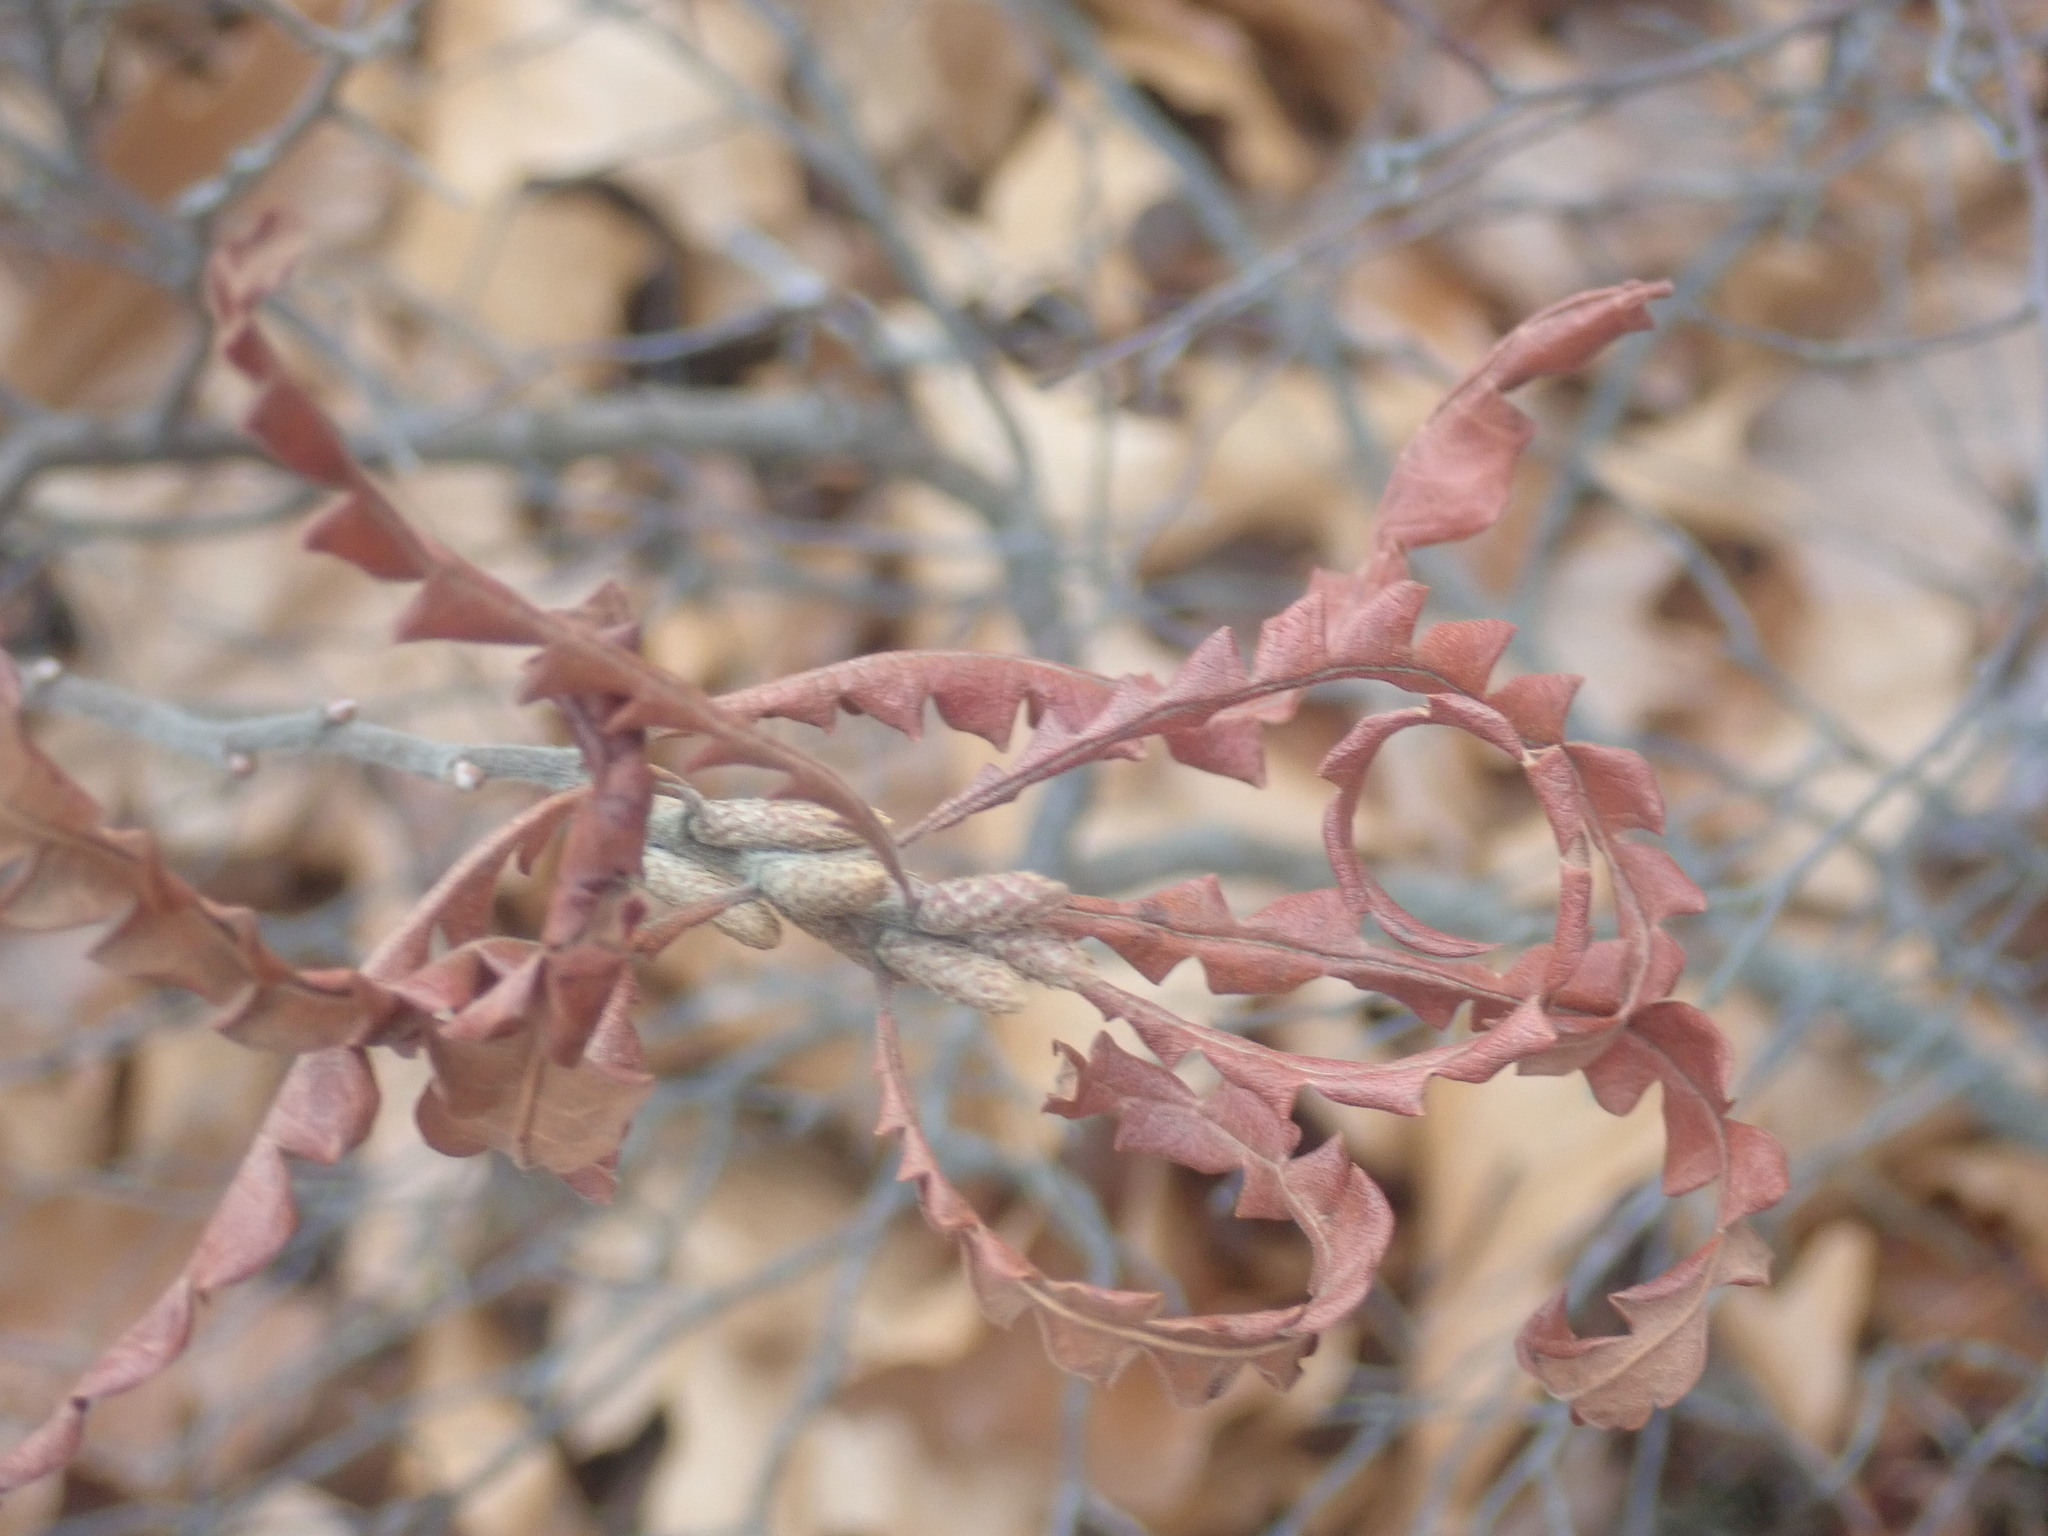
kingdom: Plantae
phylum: Tracheophyta
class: Magnoliopsida
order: Fagales
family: Myricaceae
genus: Comptonia
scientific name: Comptonia peregrina
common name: Sweet-fern
